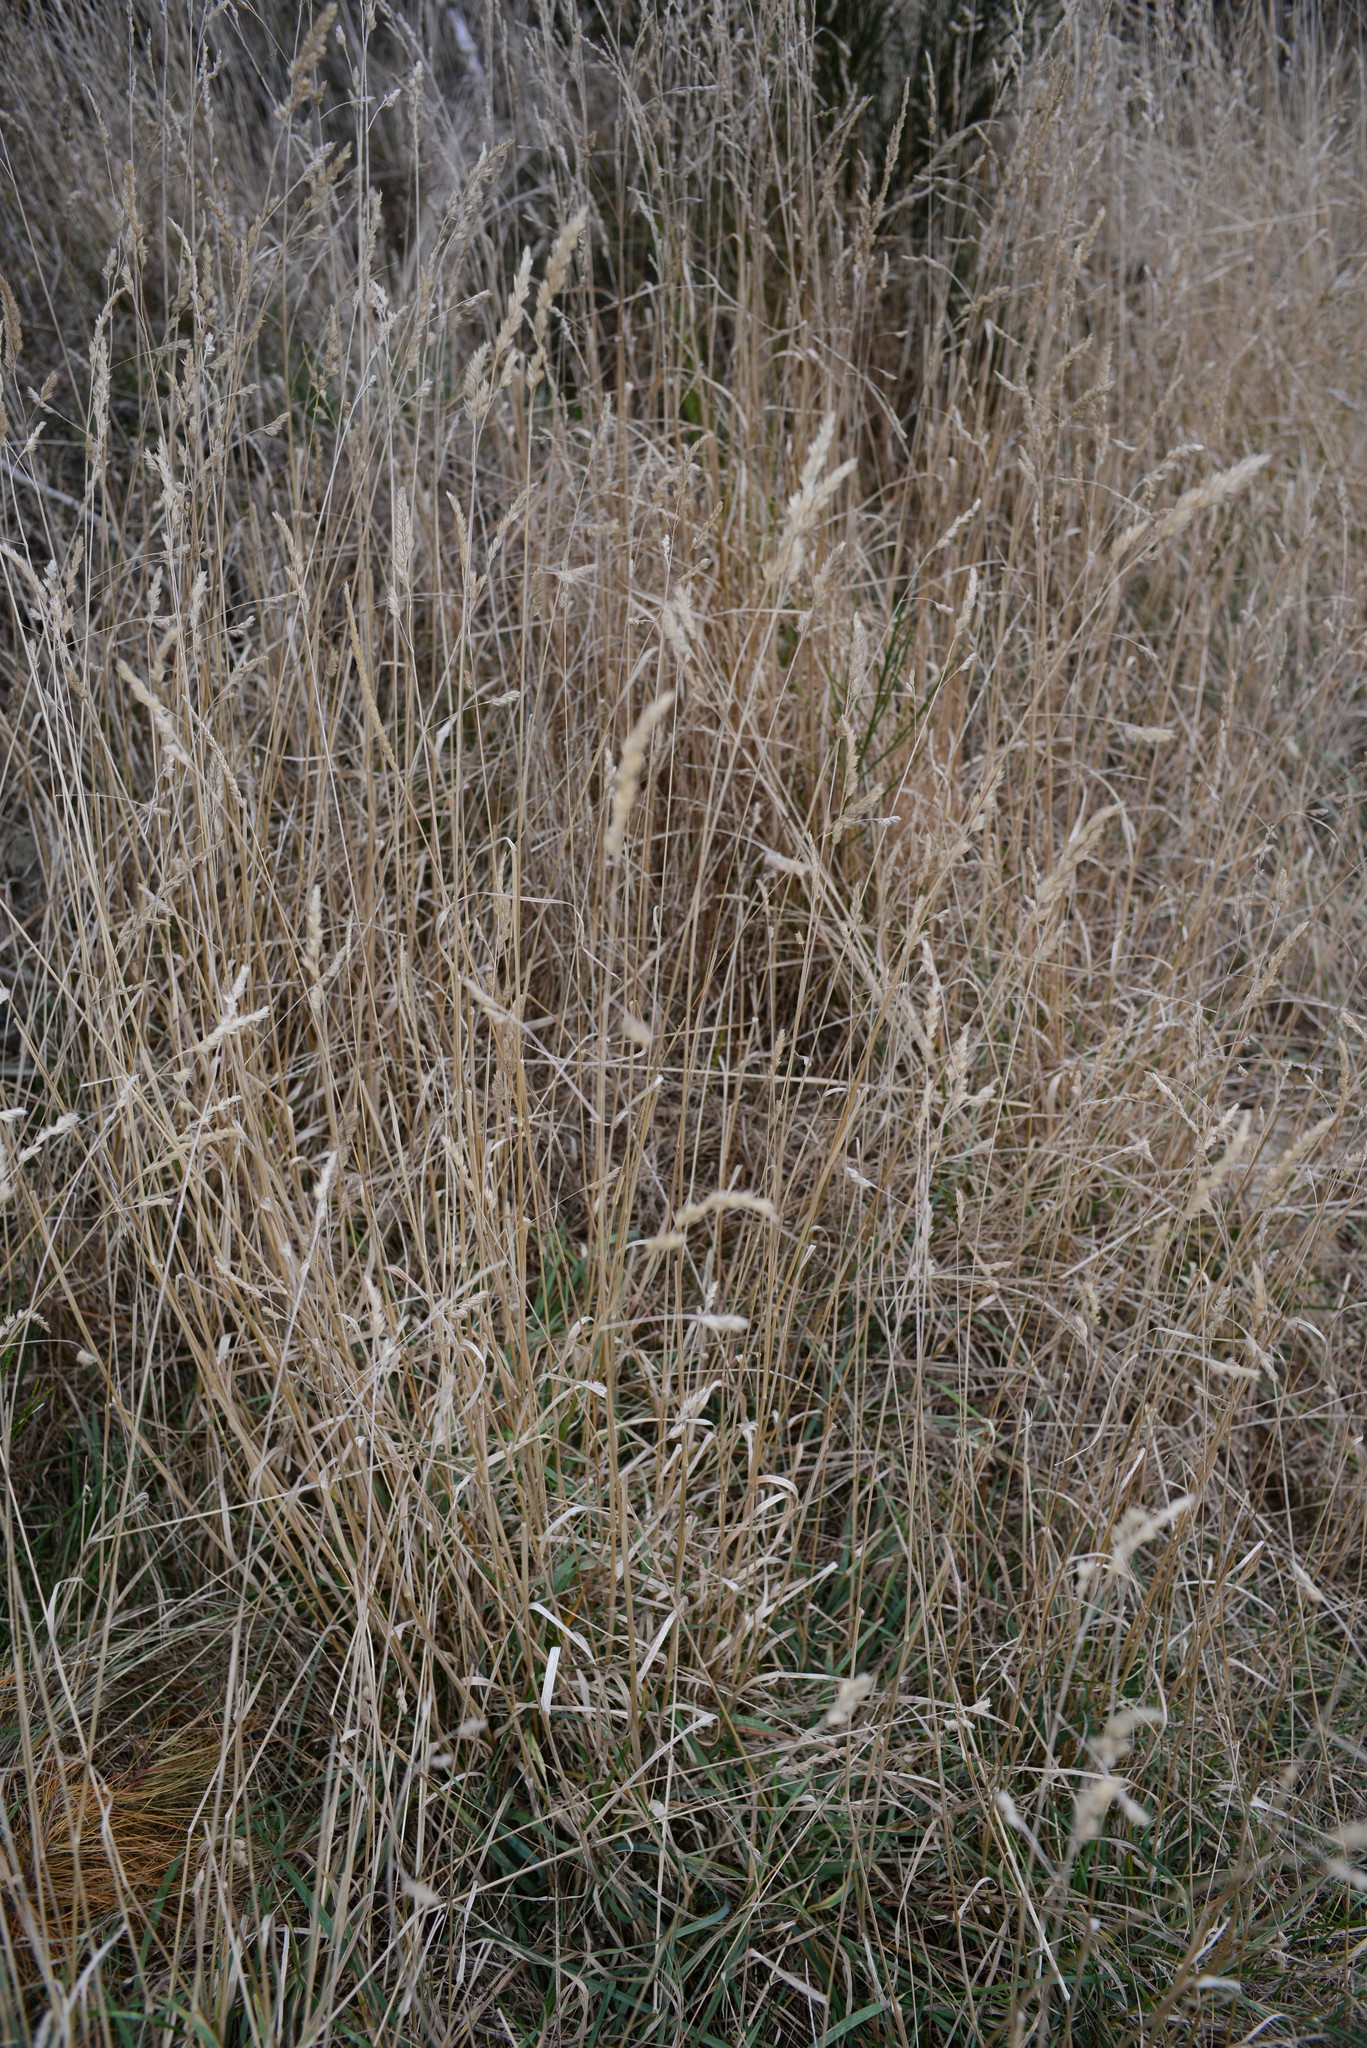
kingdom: Plantae
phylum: Tracheophyta
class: Liliopsida
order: Poales
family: Poaceae
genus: Dactylis
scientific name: Dactylis glomerata
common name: Orchardgrass
